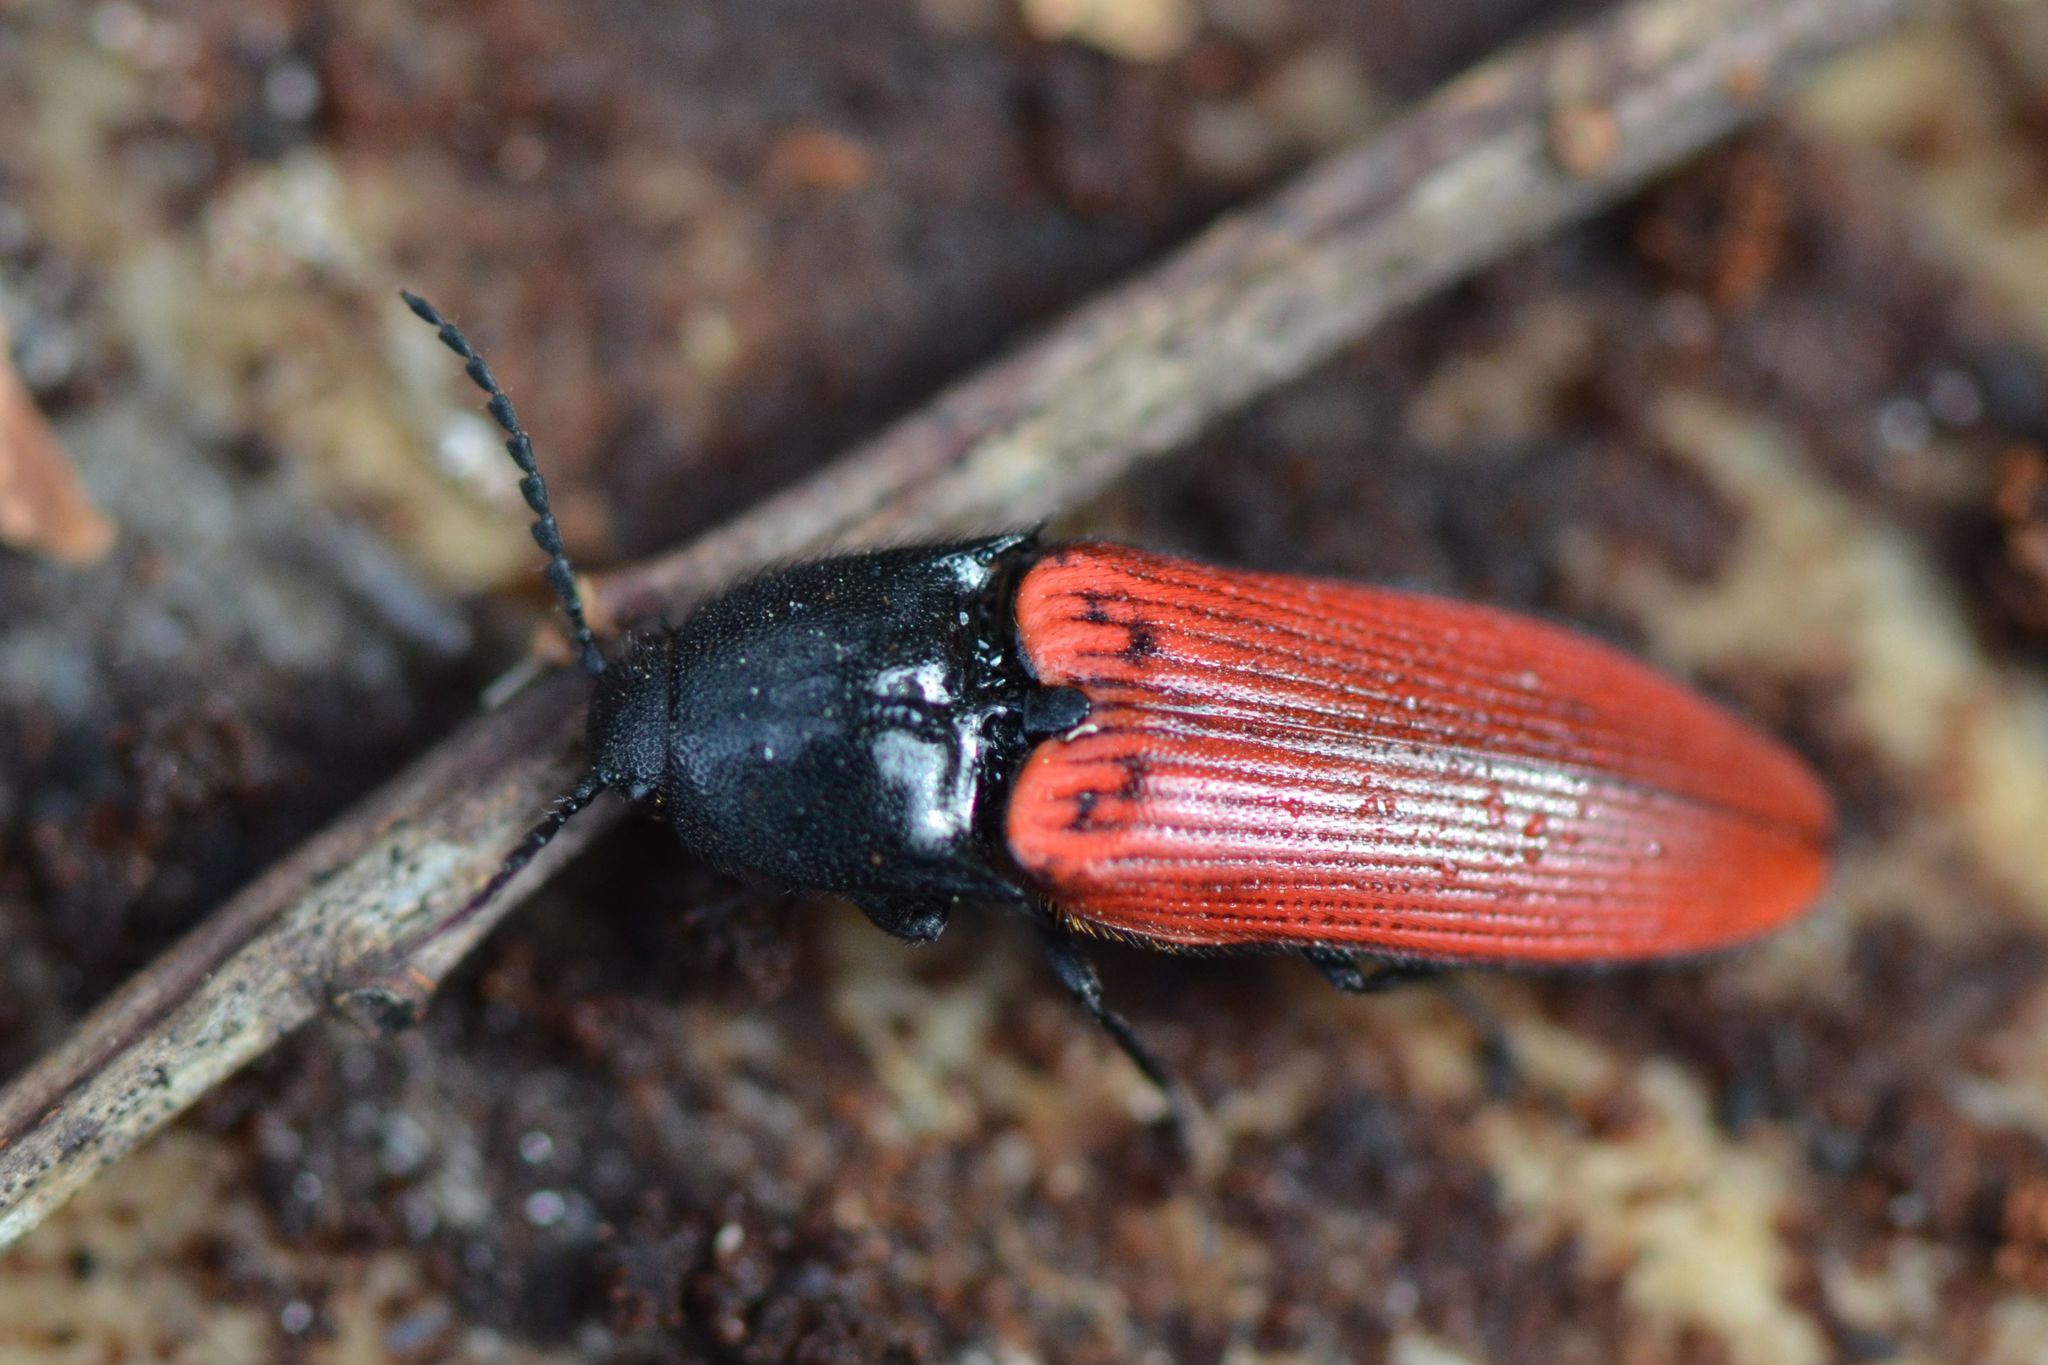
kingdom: Animalia
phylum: Arthropoda
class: Insecta
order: Coleoptera
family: Elateridae
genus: Ampedus
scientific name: Ampedus sanguineus
